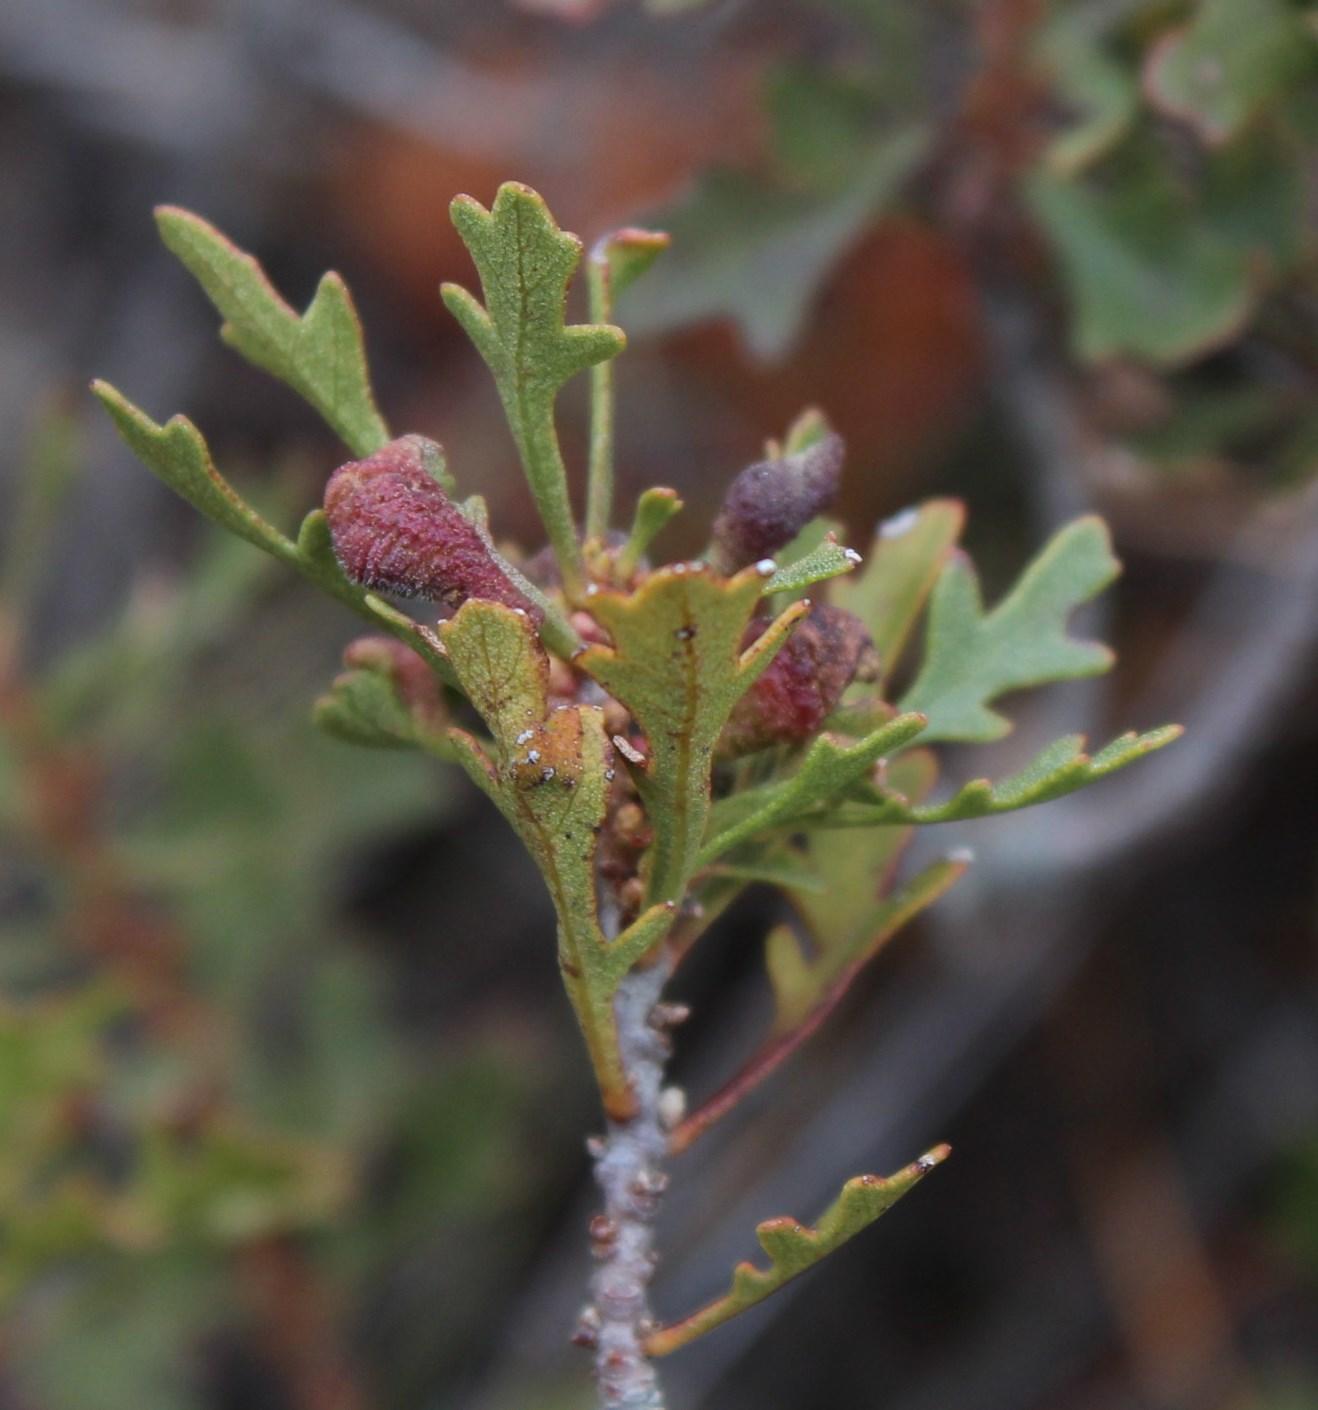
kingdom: Plantae
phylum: Tracheophyta
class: Magnoliopsida
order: Fagales
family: Myricaceae
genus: Morella
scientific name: Morella quercifolia
